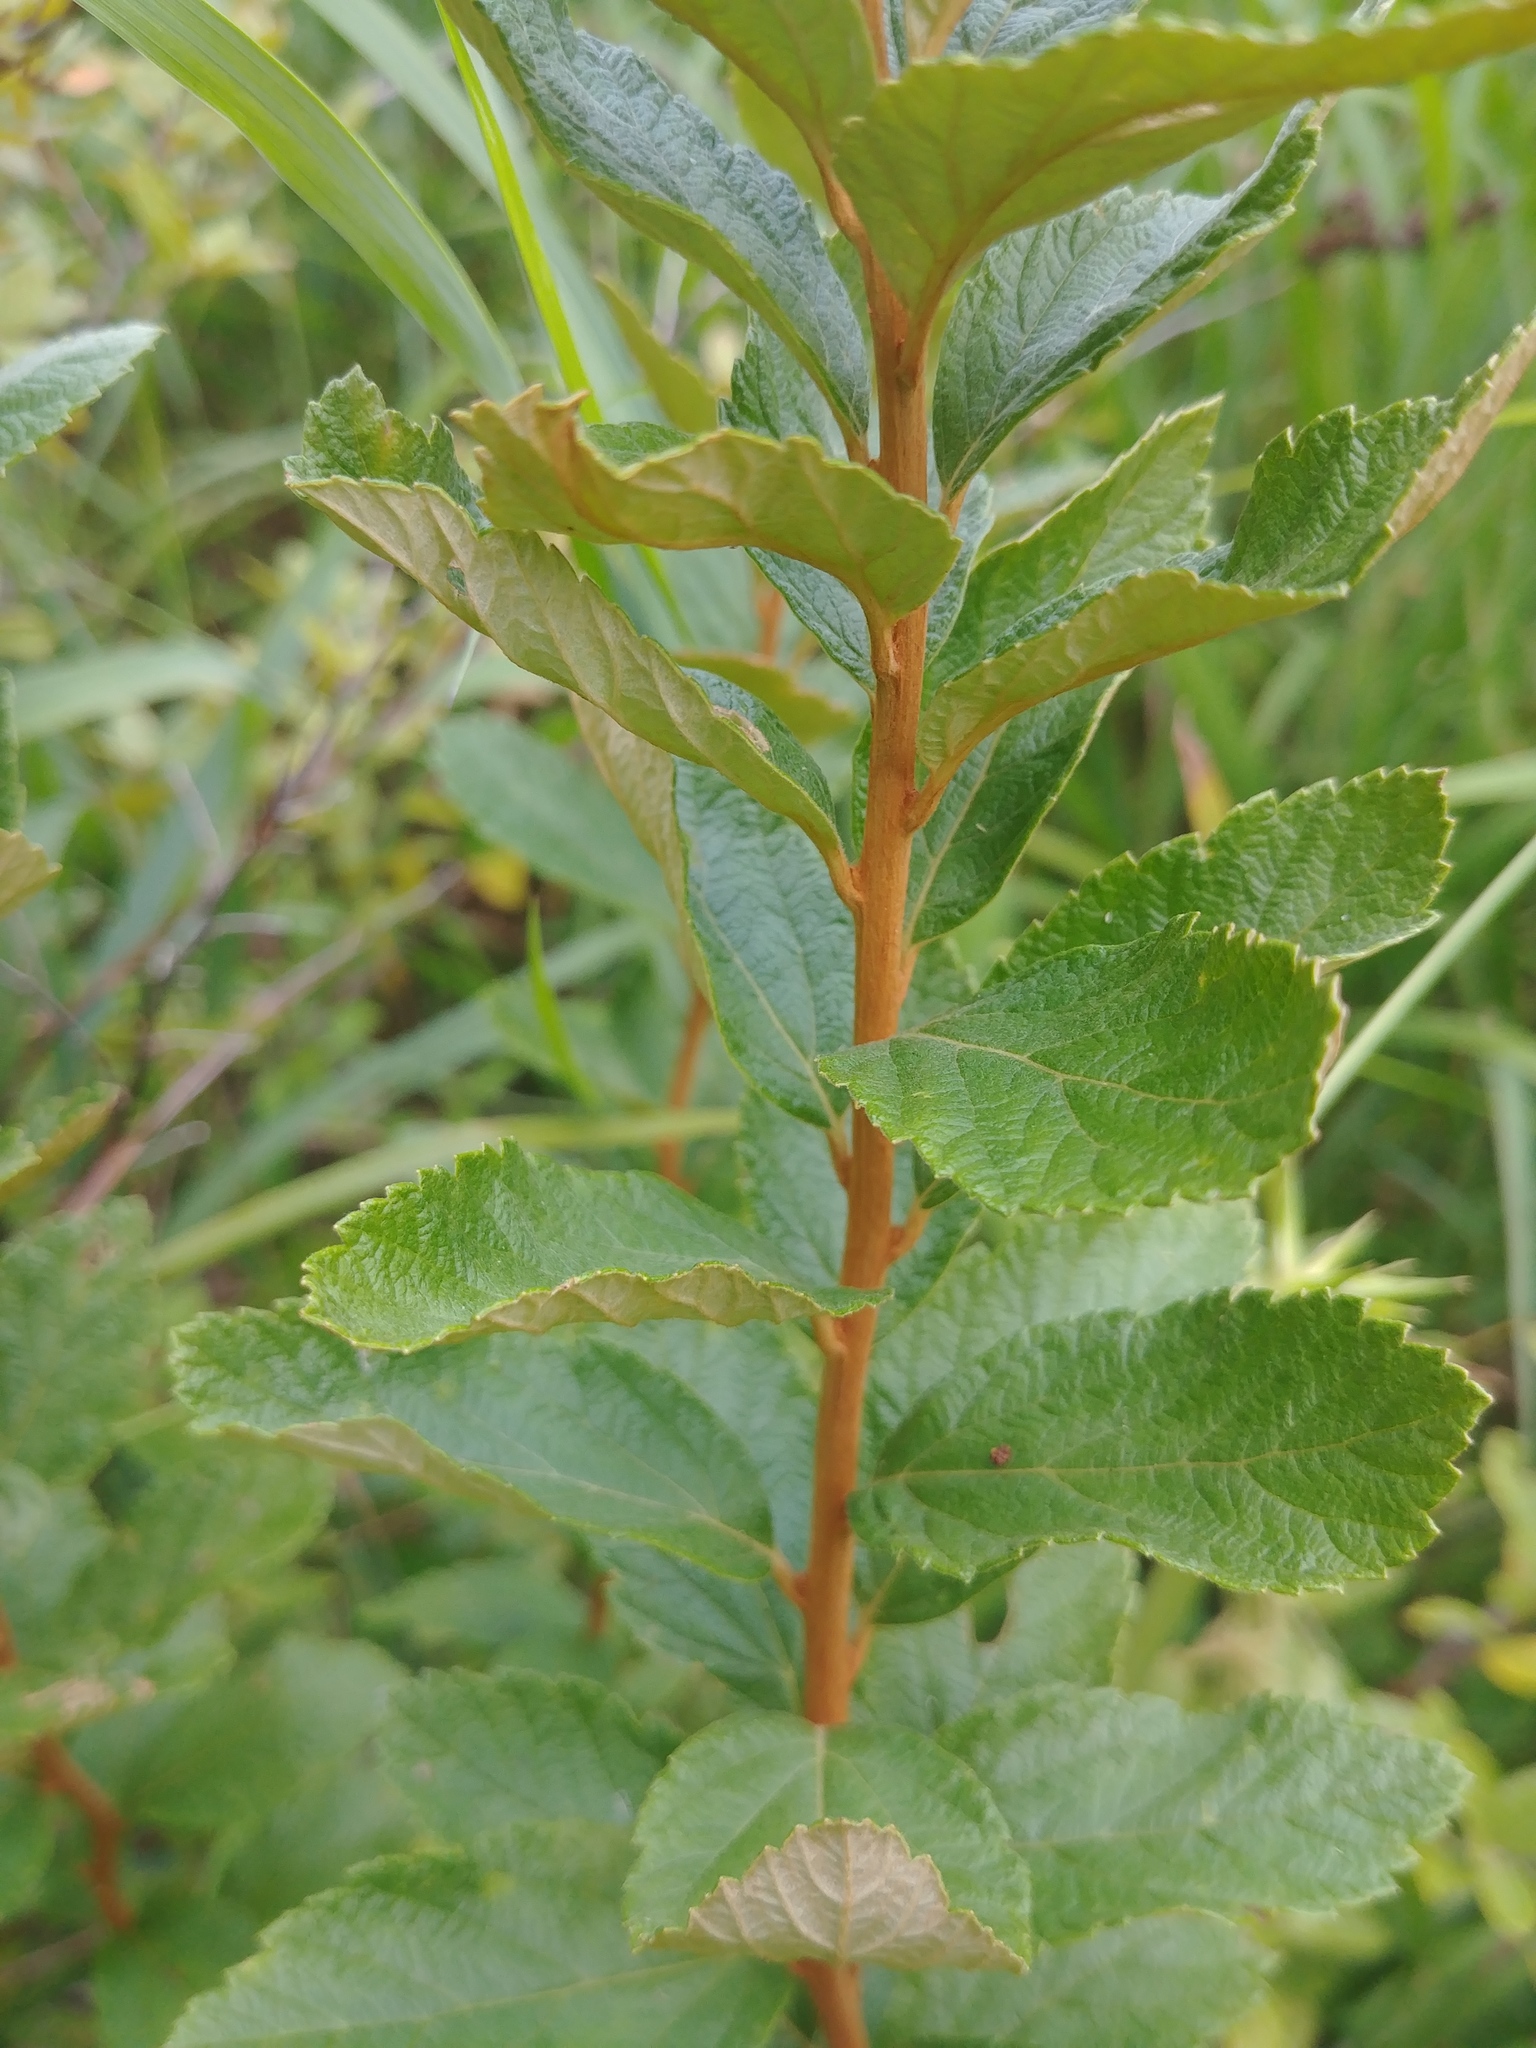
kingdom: Plantae
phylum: Tracheophyta
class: Magnoliopsida
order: Rosales
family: Rosaceae
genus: Spiraea
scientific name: Spiraea tomentosa
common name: Hardhack
